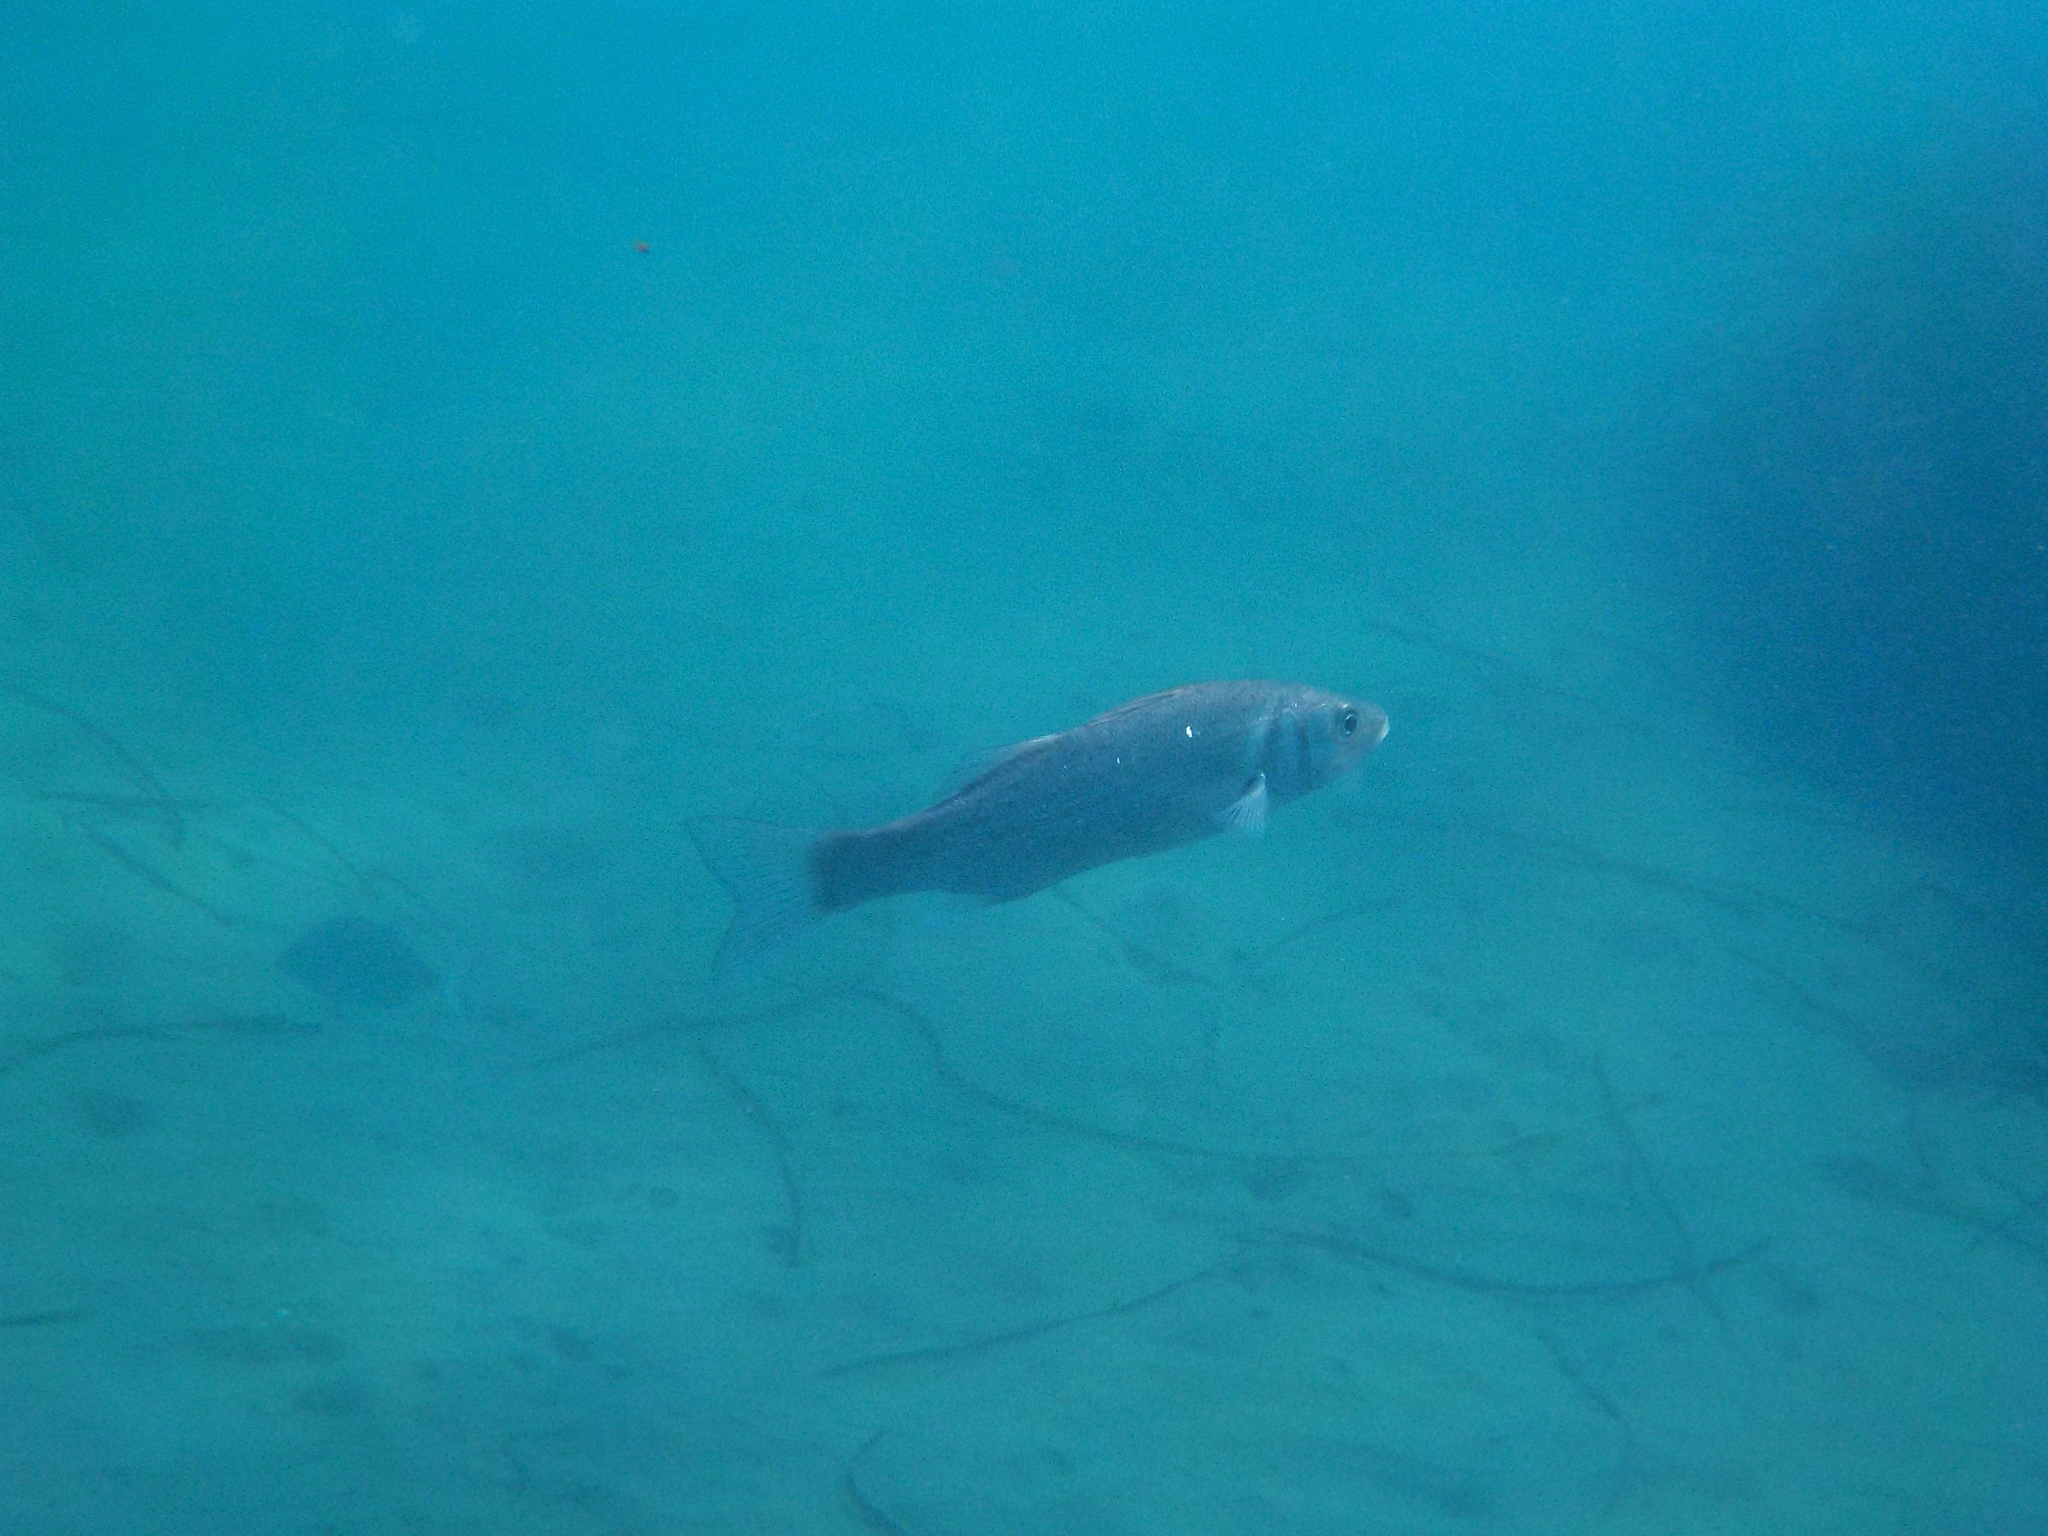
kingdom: Animalia
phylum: Chordata
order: Perciformes
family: Moronidae
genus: Dicentrarchus
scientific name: Dicentrarchus labrax
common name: European seabass
